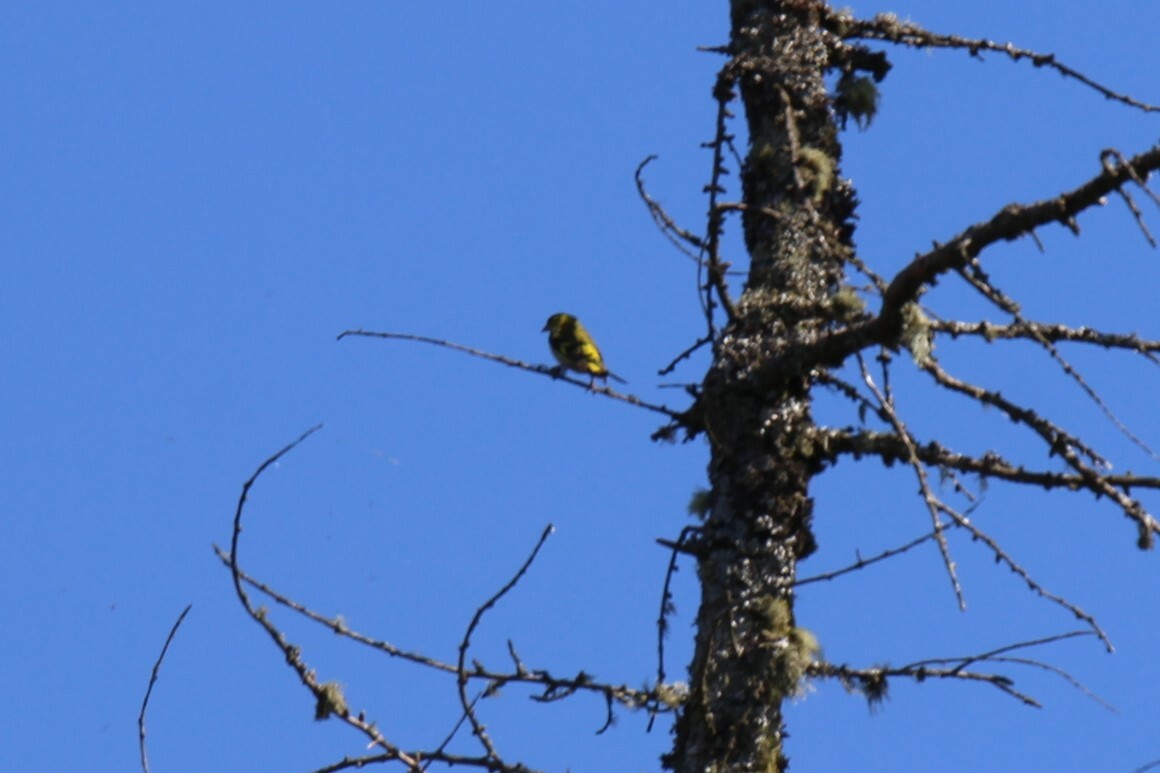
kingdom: Animalia
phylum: Chordata
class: Aves
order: Passeriformes
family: Fringillidae
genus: Spinus
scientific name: Spinus spinus
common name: Eurasian siskin
